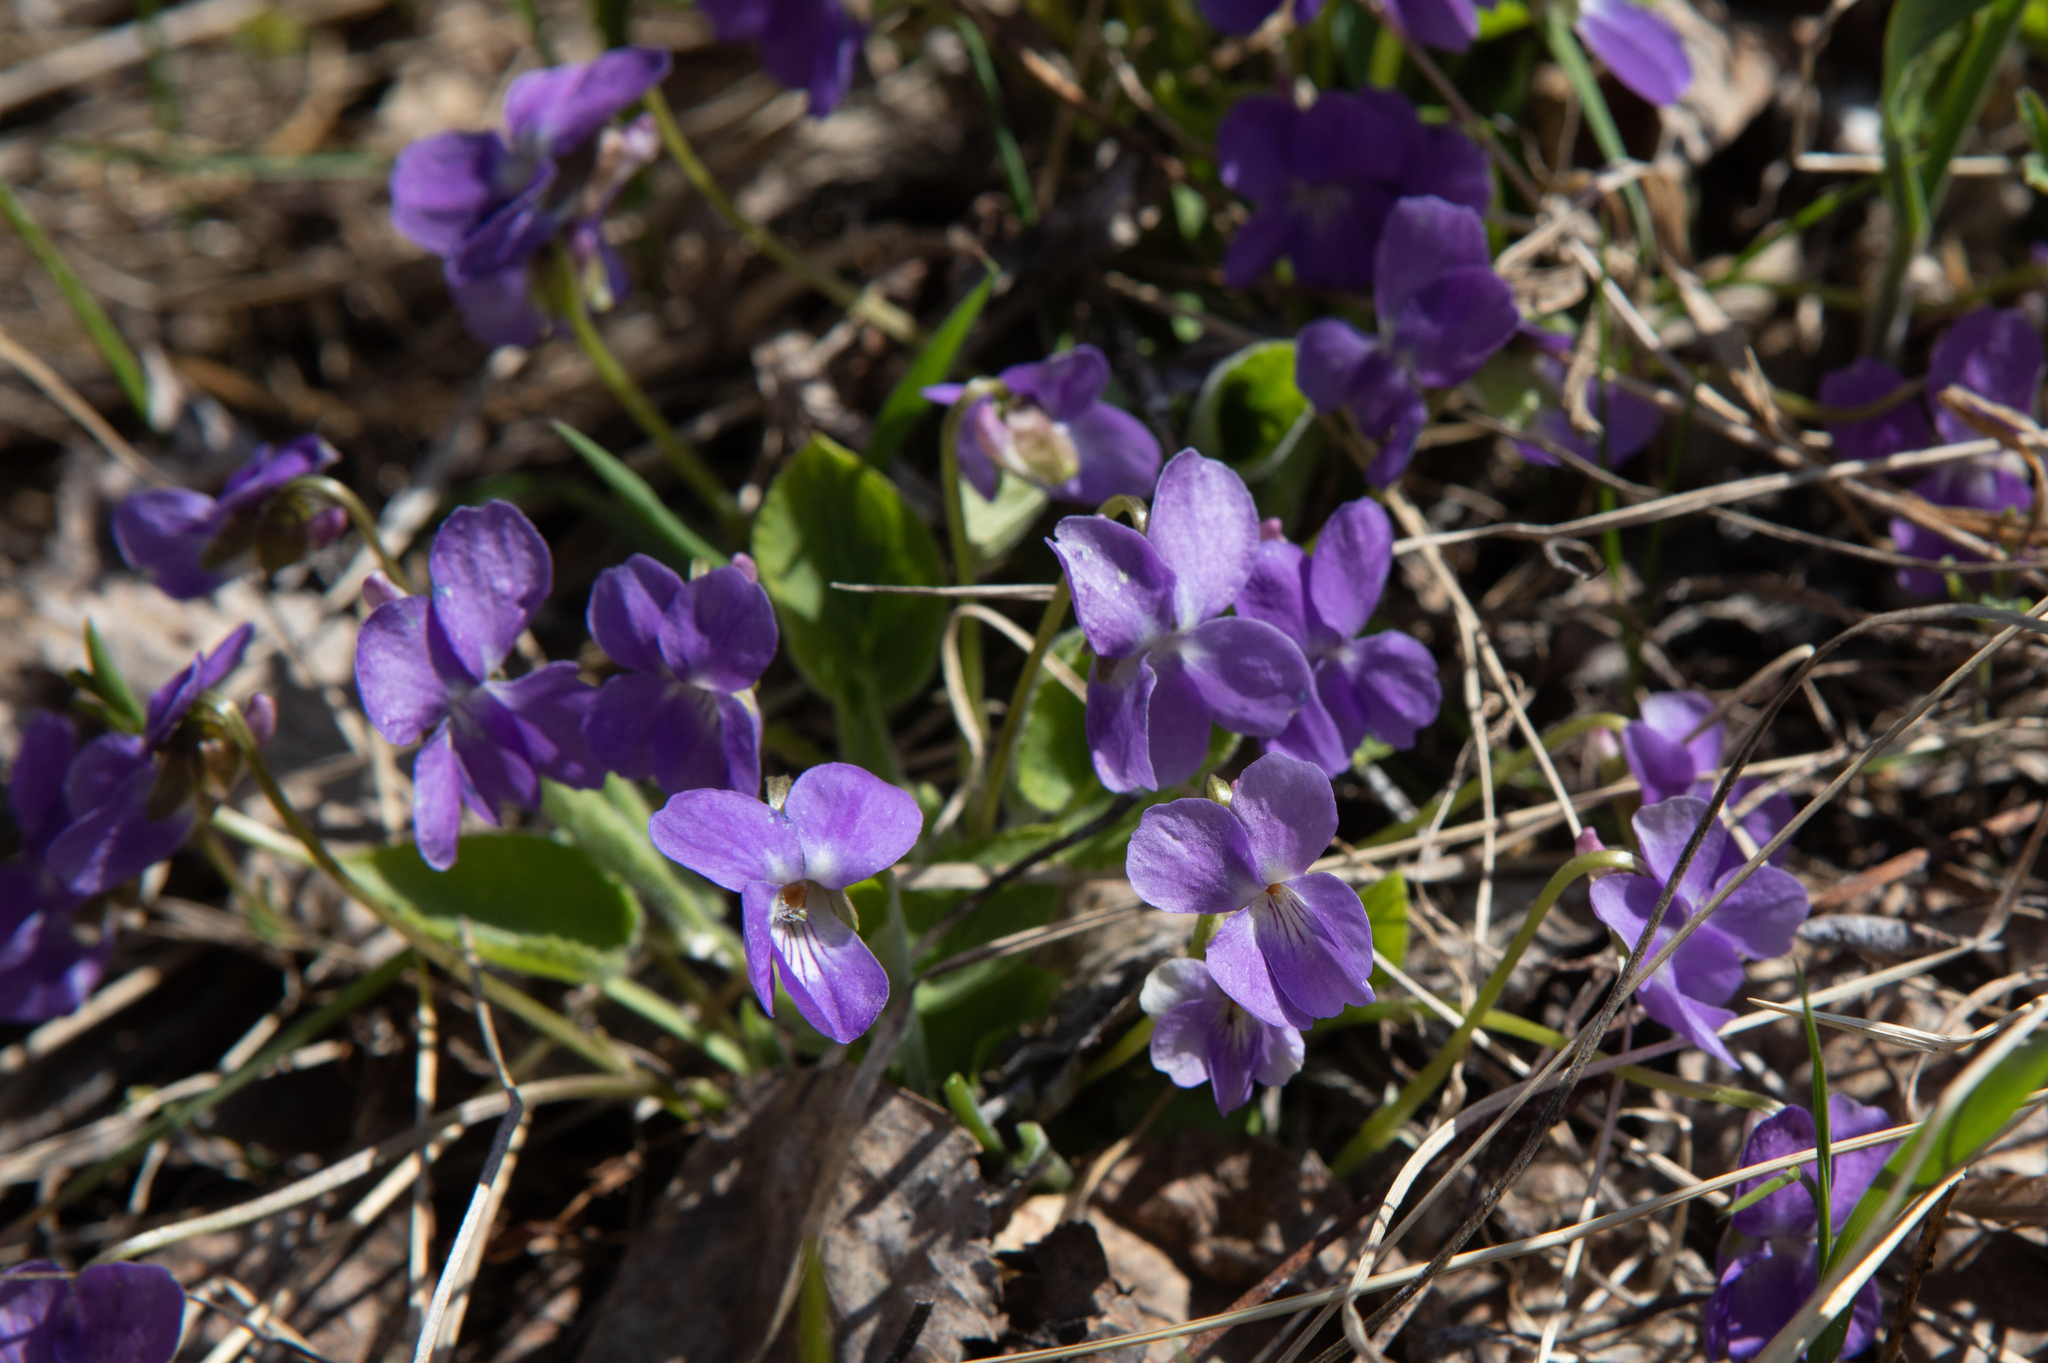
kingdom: Plantae
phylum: Tracheophyta
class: Magnoliopsida
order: Malpighiales
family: Violaceae
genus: Viola
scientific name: Viola hirta
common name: Hairy violet
